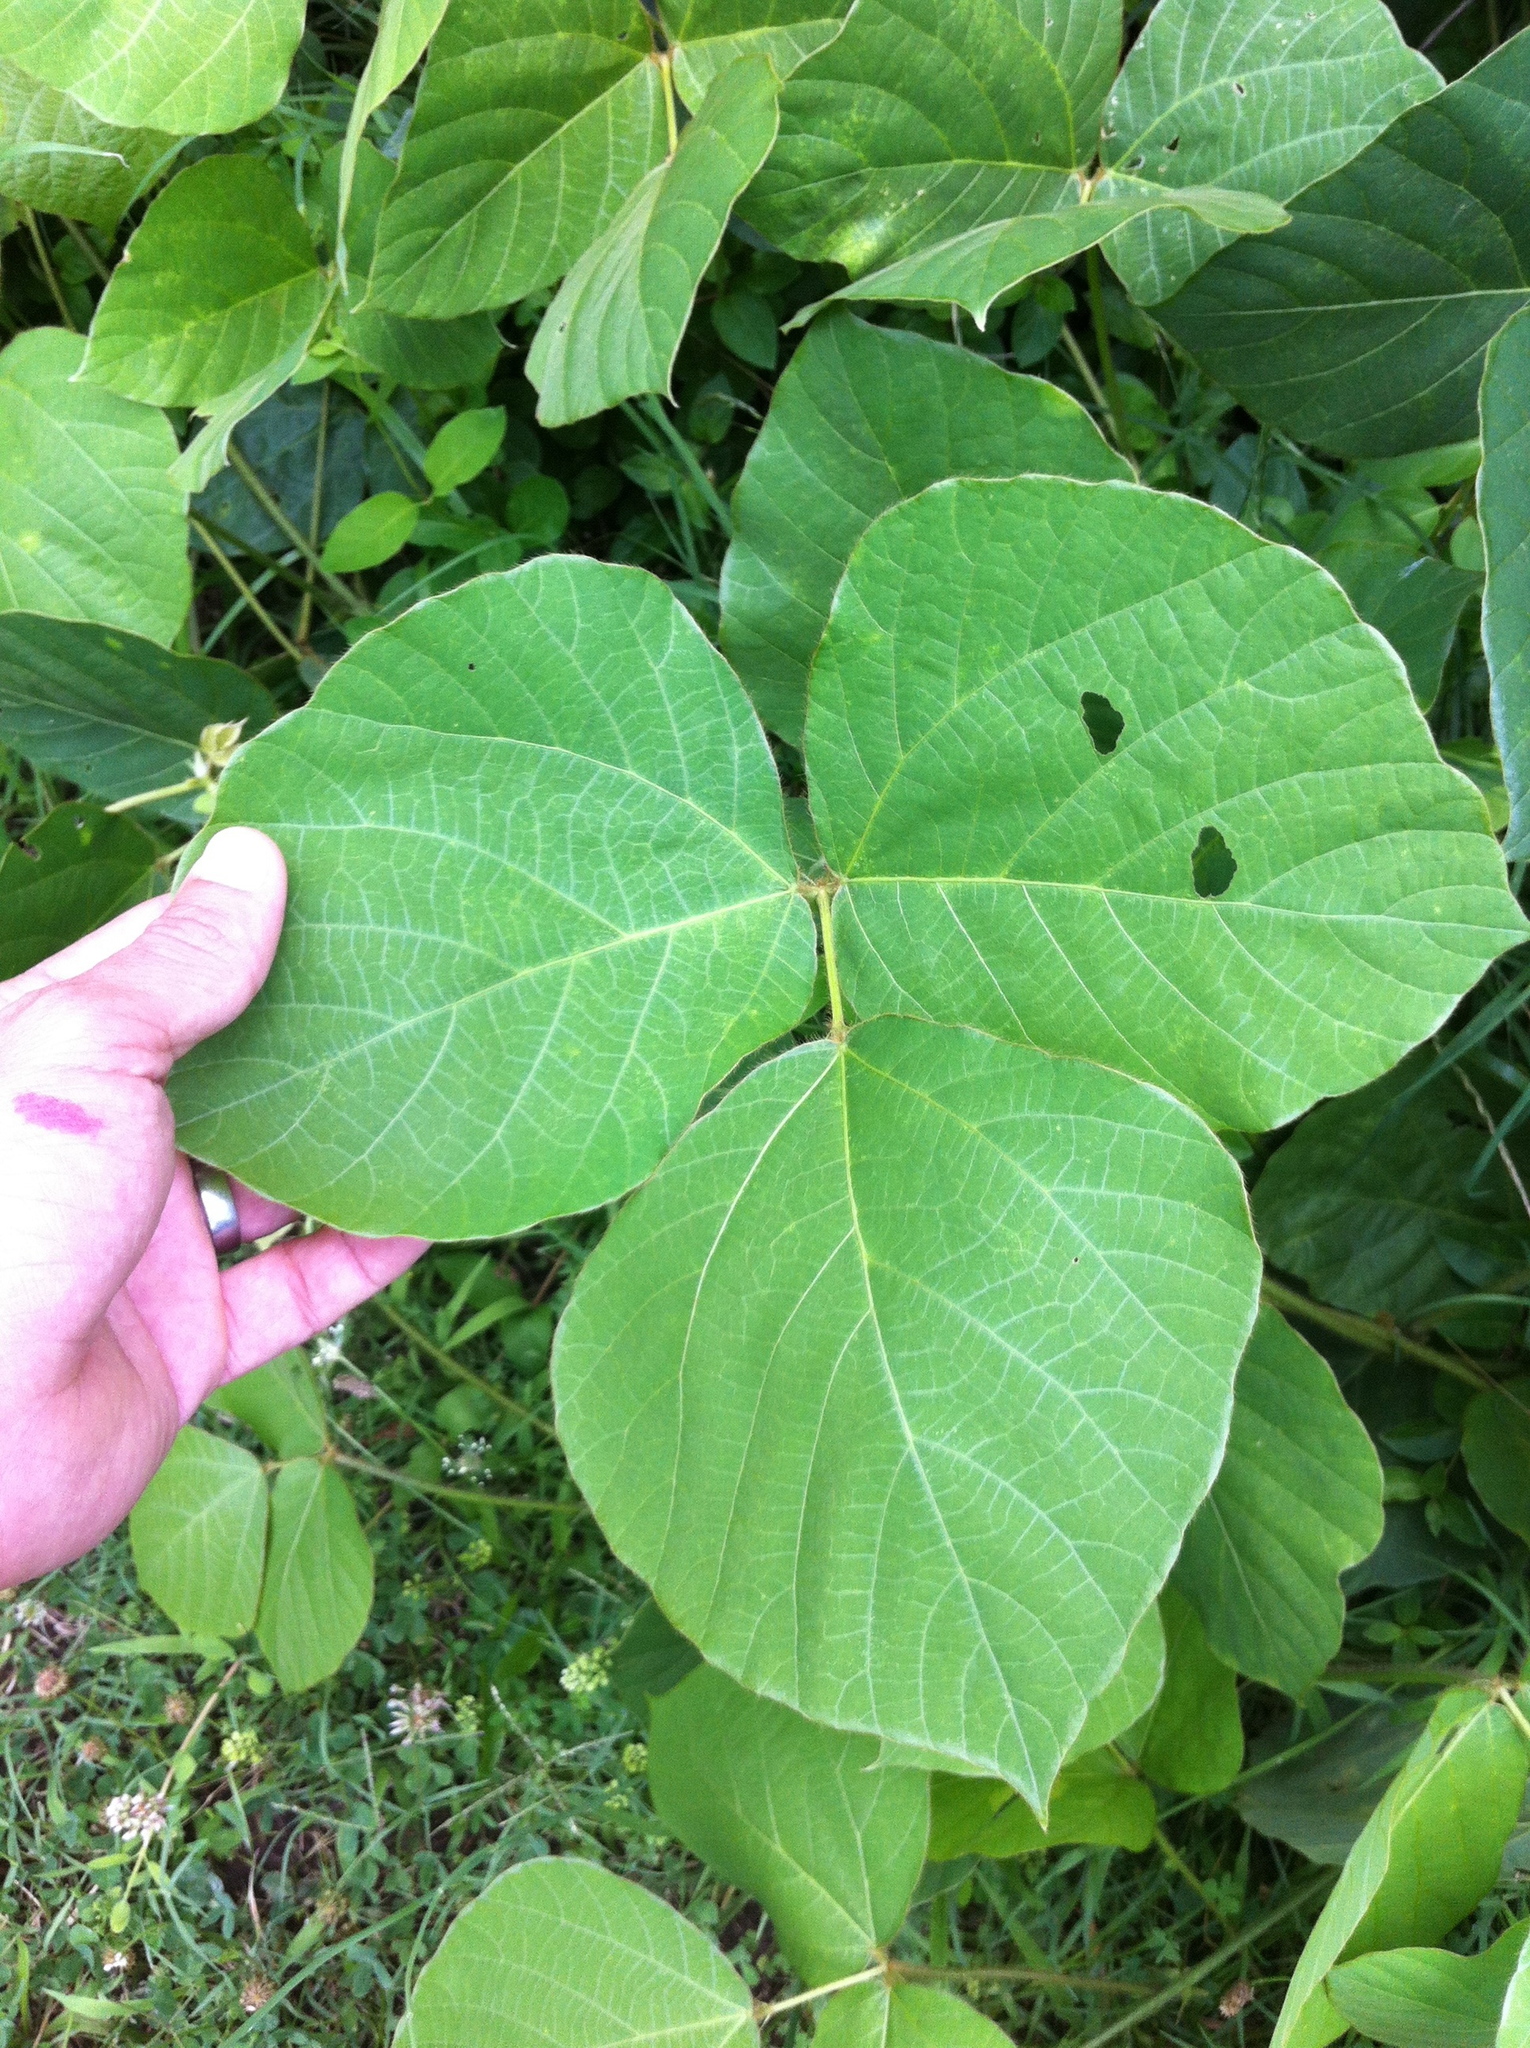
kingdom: Plantae
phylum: Tracheophyta
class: Magnoliopsida
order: Fabales
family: Fabaceae
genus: Pueraria
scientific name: Pueraria montana
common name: Kudzu
